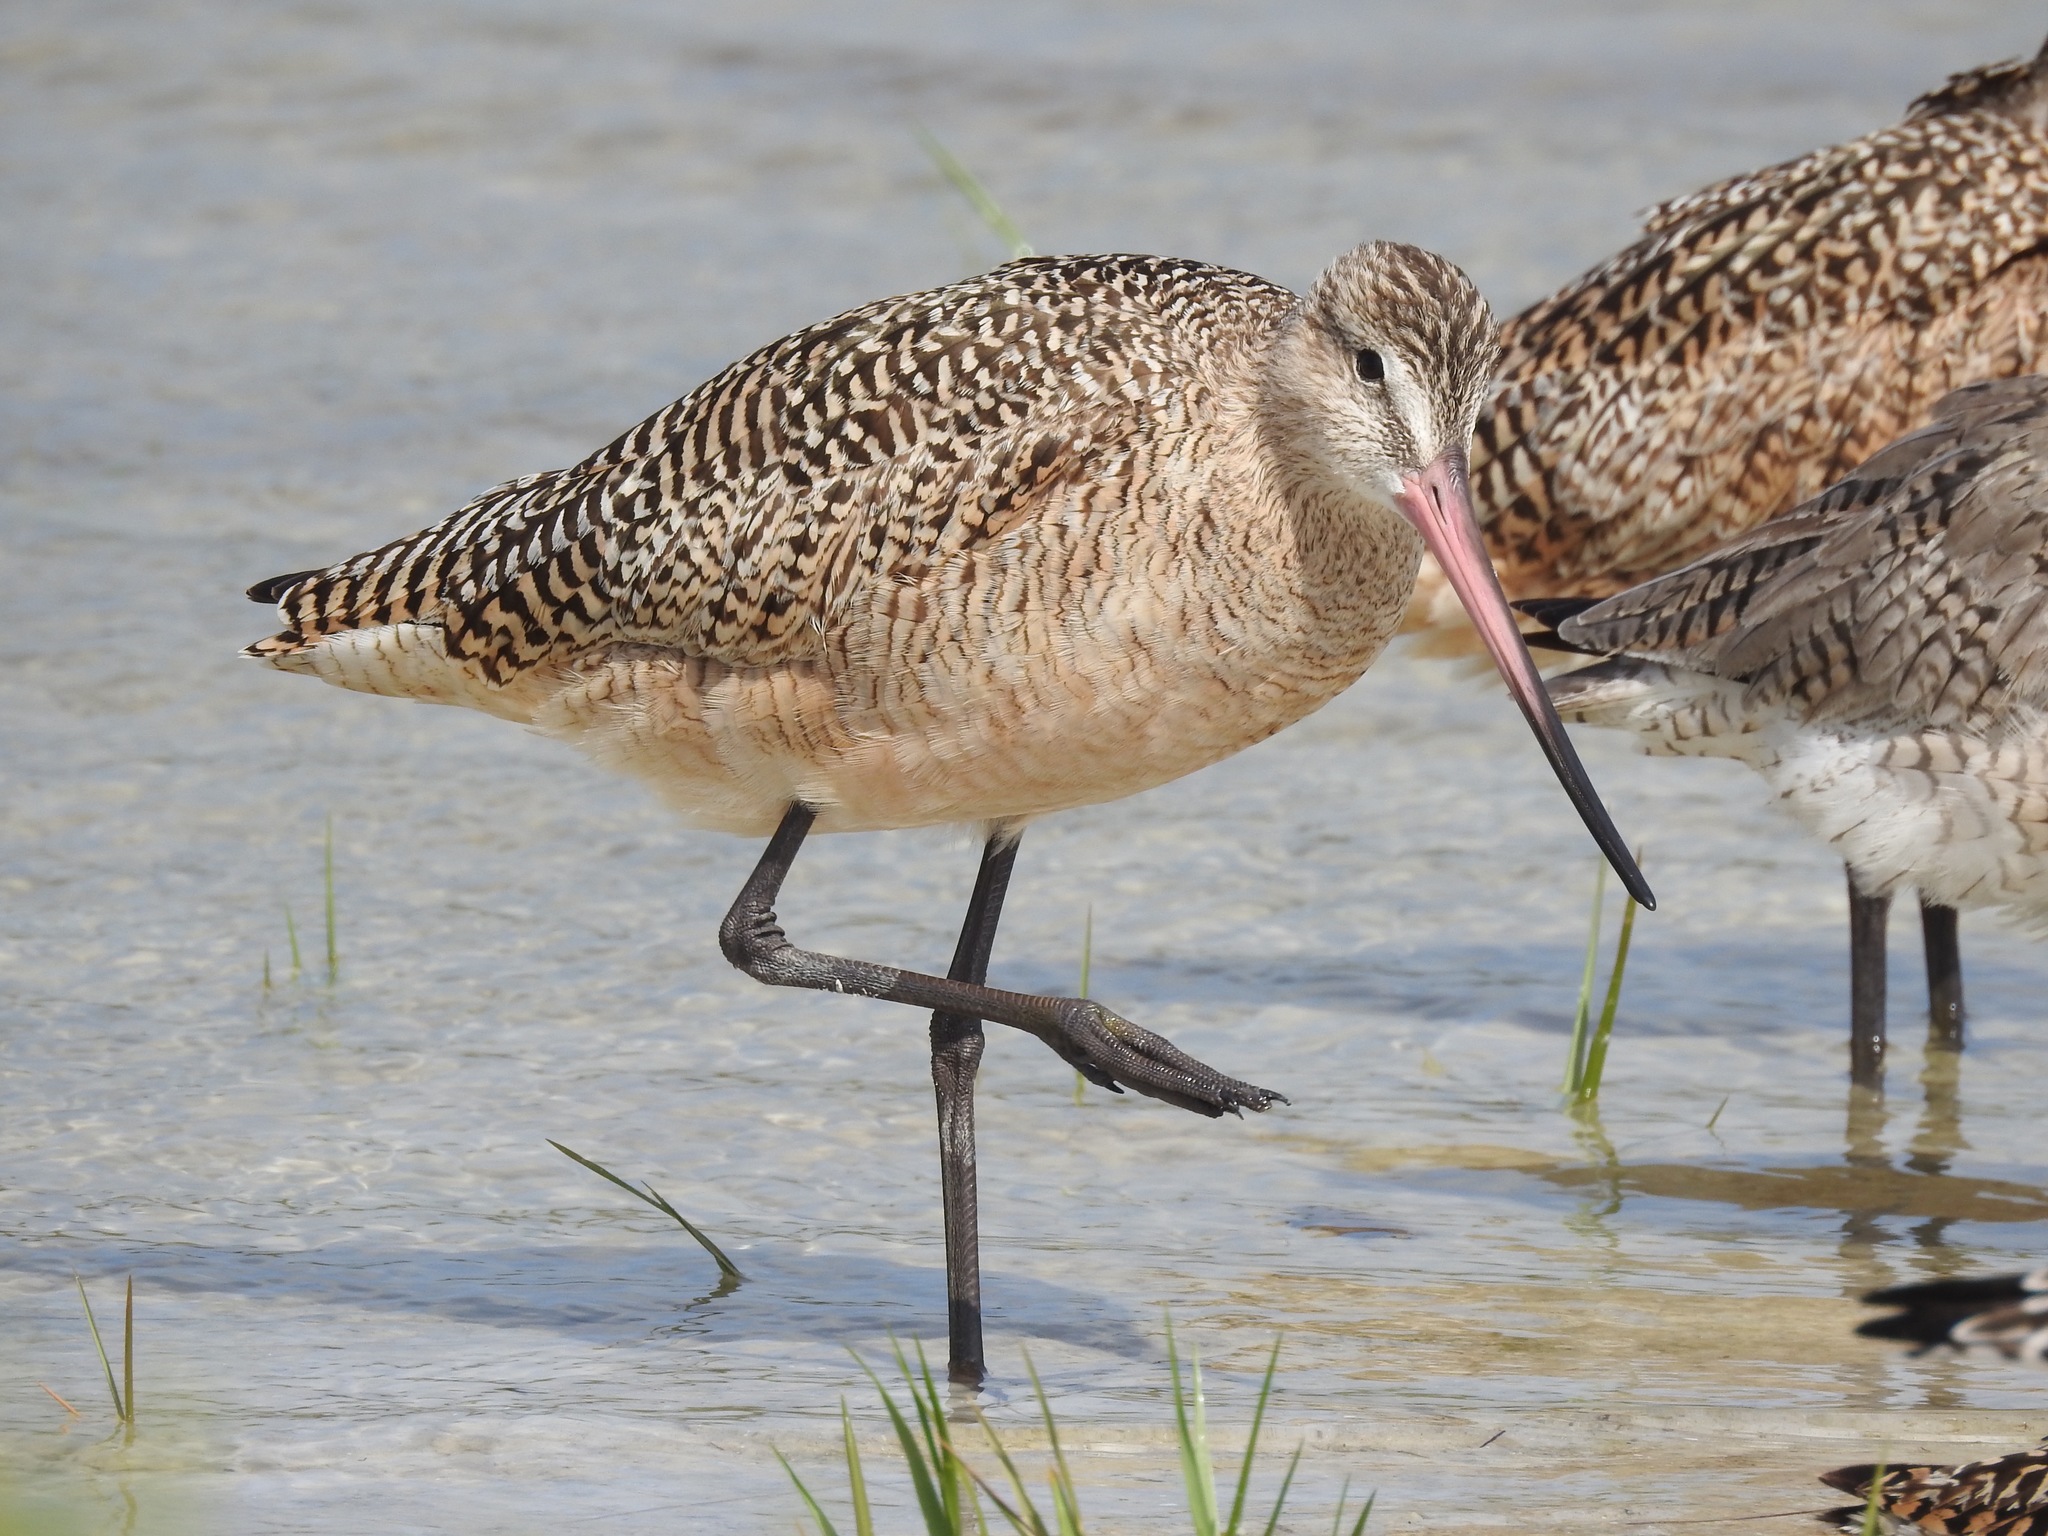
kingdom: Animalia
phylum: Chordata
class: Aves
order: Charadriiformes
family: Scolopacidae
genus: Limosa
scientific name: Limosa fedoa
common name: Marbled godwit
